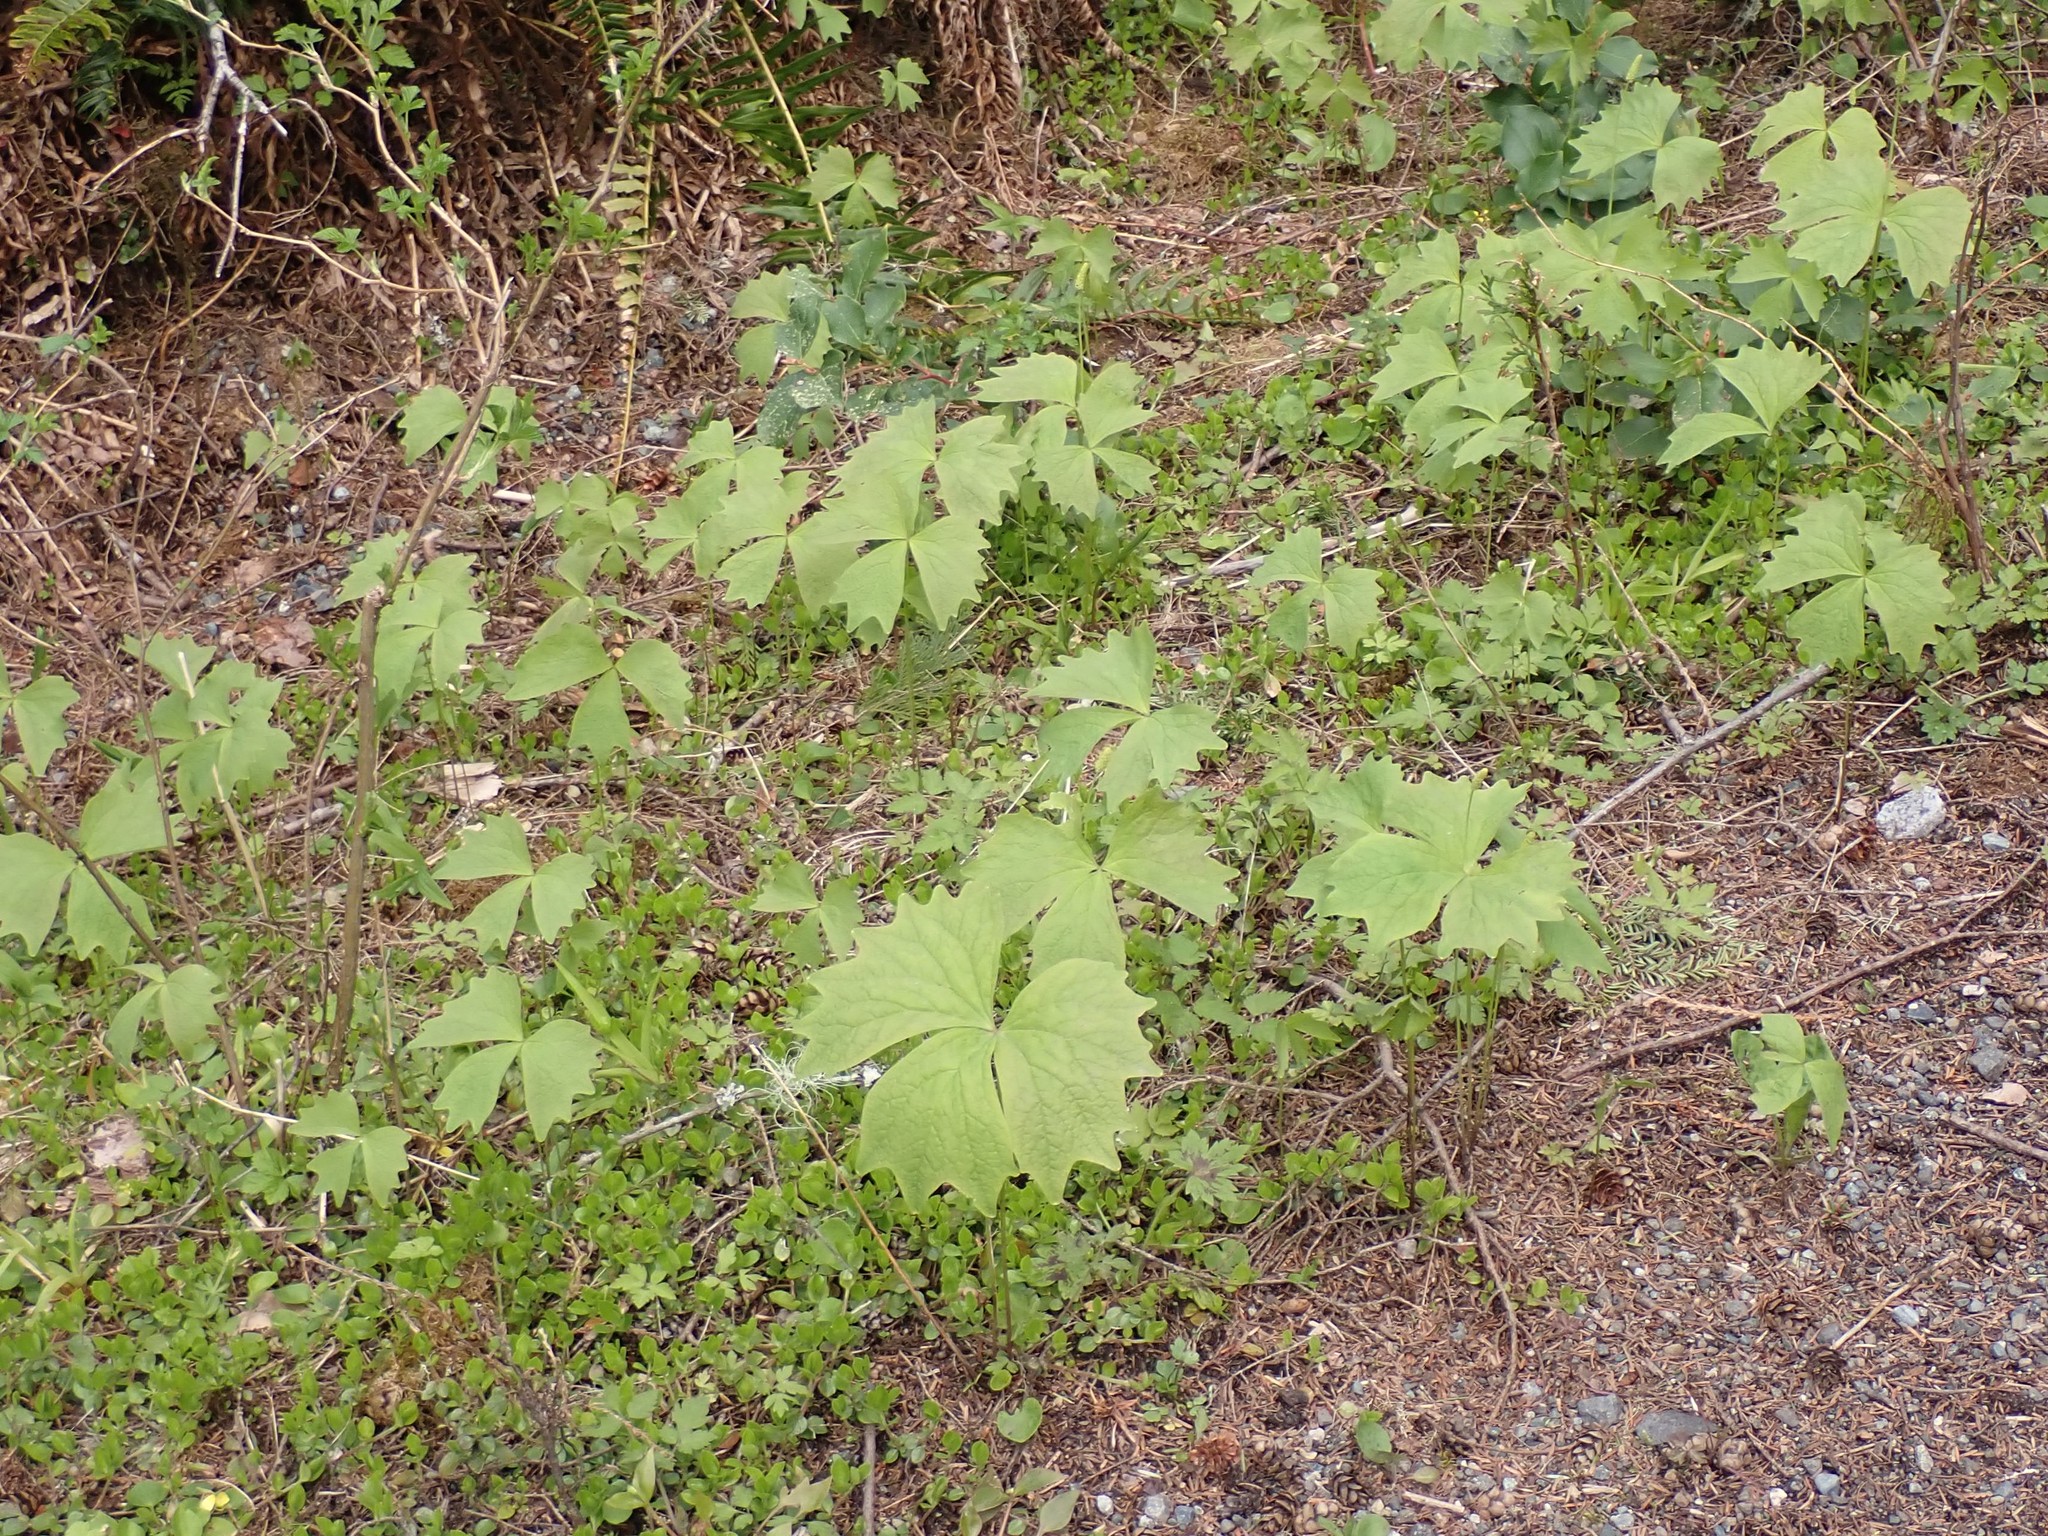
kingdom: Plantae
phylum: Tracheophyta
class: Magnoliopsida
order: Ranunculales
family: Berberidaceae
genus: Achlys
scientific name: Achlys triphylla
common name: Vanilla-leaf
